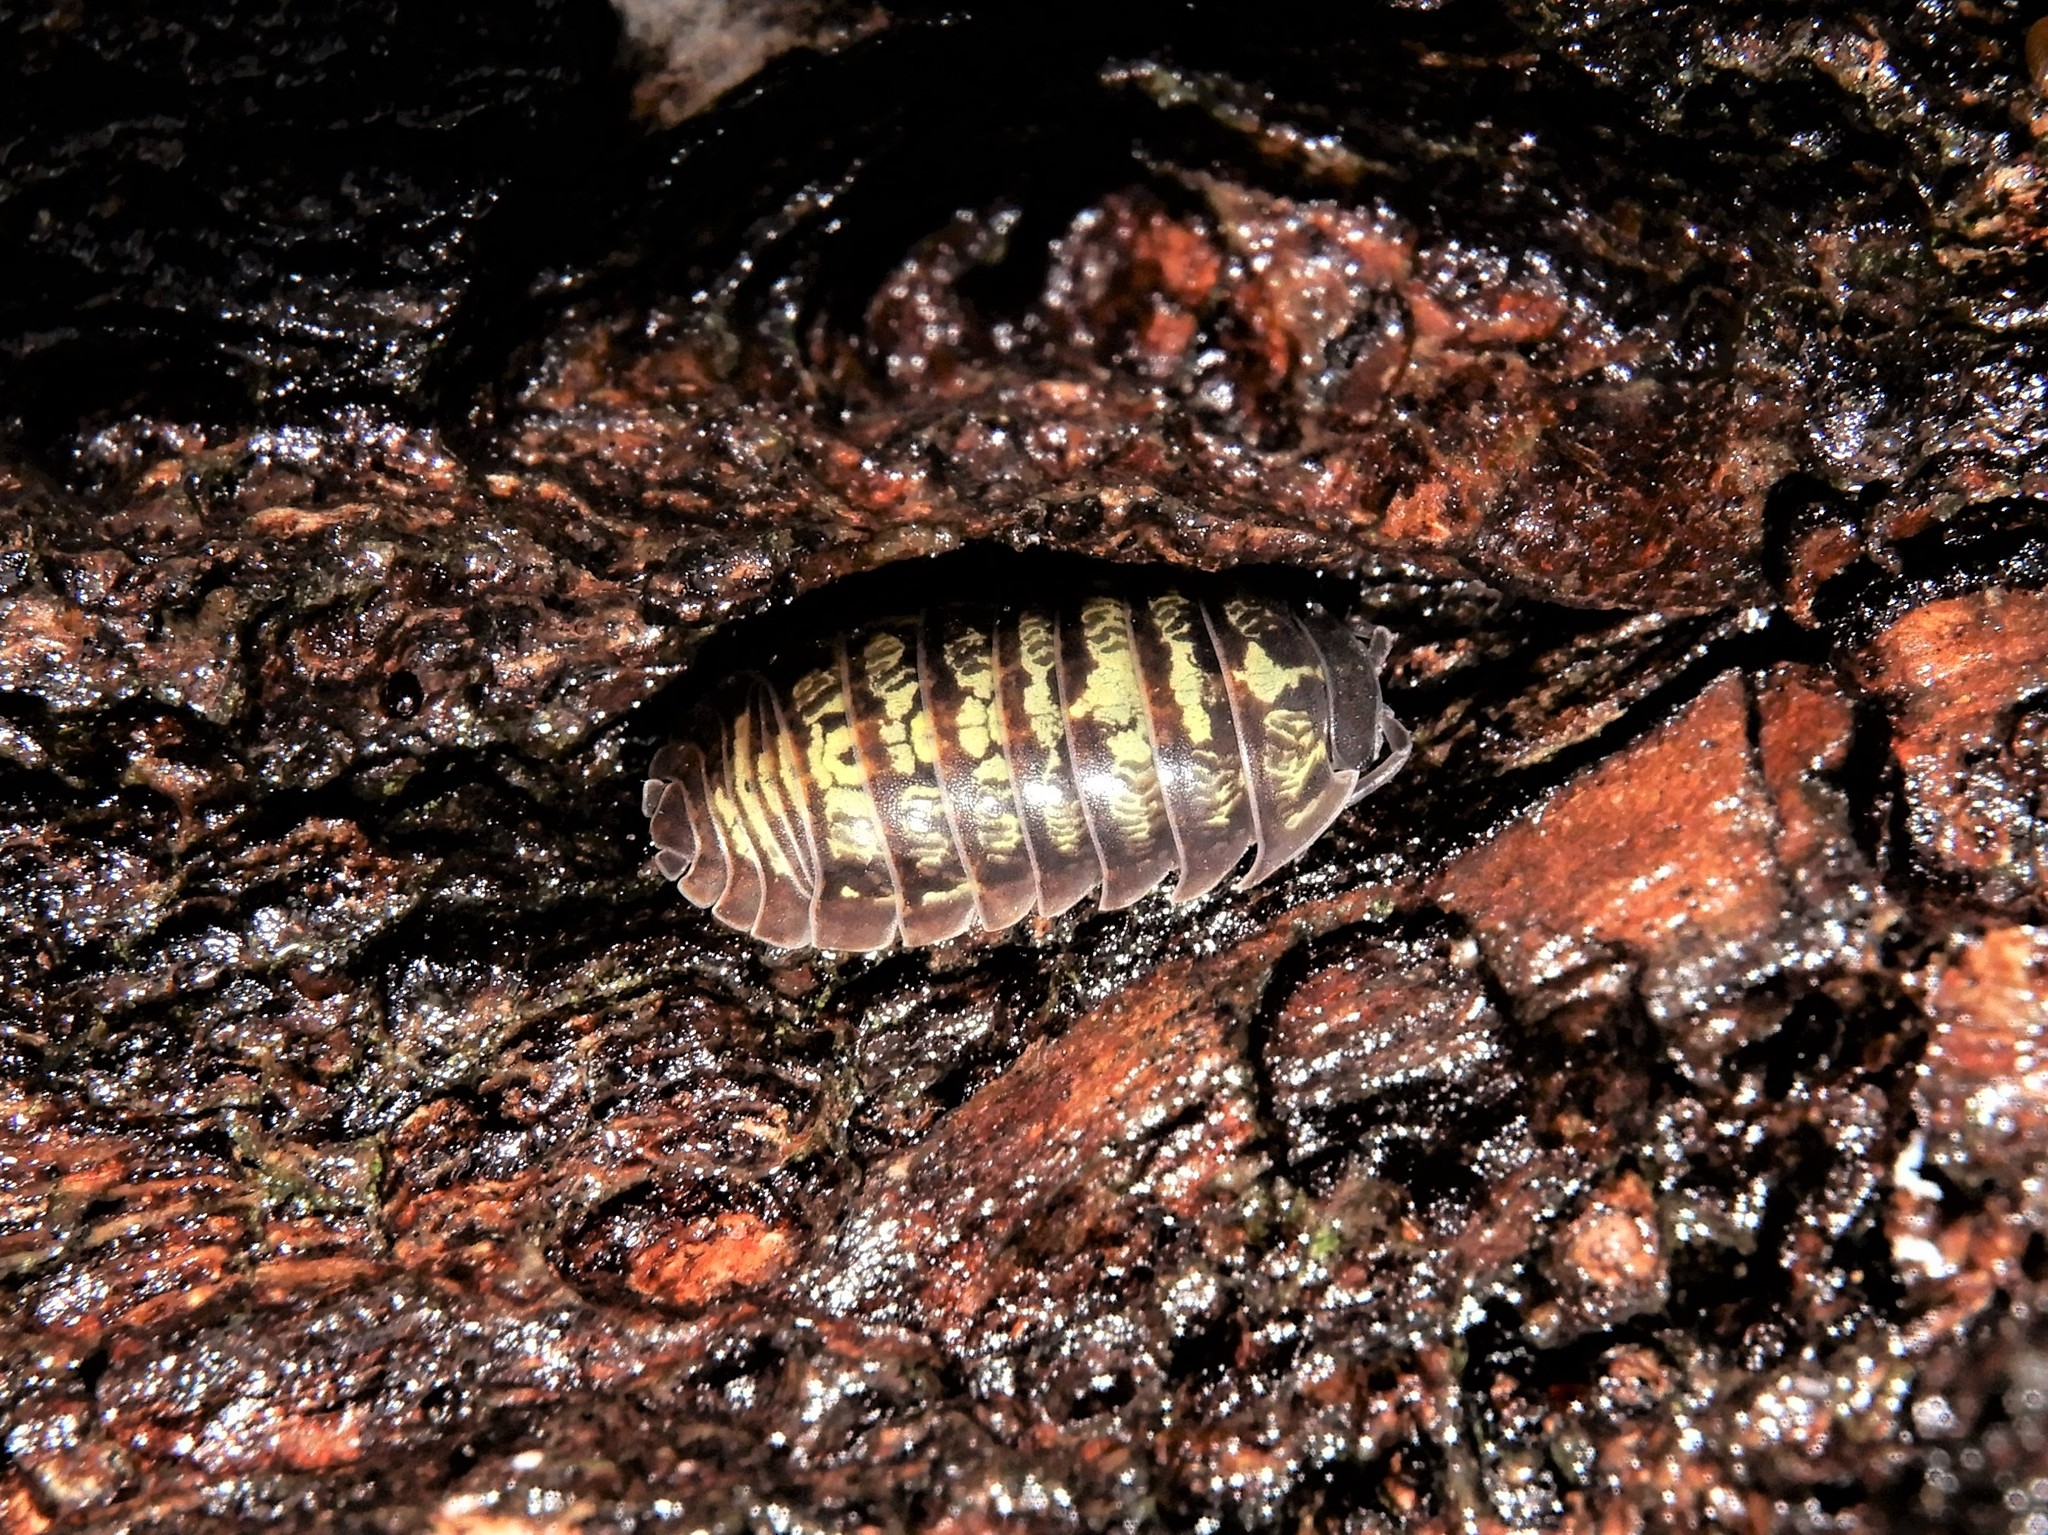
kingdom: Animalia
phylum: Arthropoda
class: Malacostraca
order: Isopoda
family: Armadillidiidae
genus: Armadillidium
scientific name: Armadillidium vulgare
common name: Common pill woodlouse
